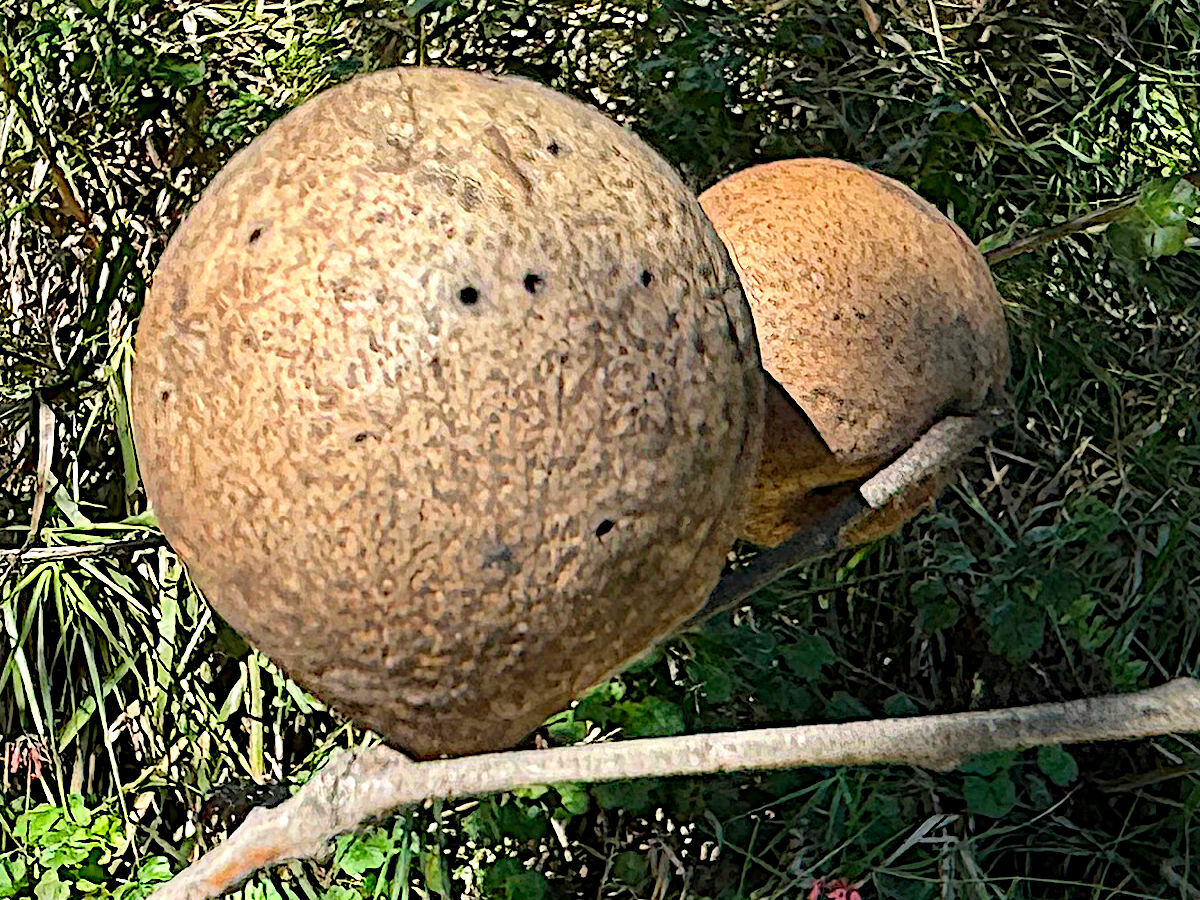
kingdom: Animalia
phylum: Arthropoda
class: Insecta
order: Hymenoptera
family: Cynipidae
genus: Amphibolips
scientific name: Amphibolips quercuspomiformis
